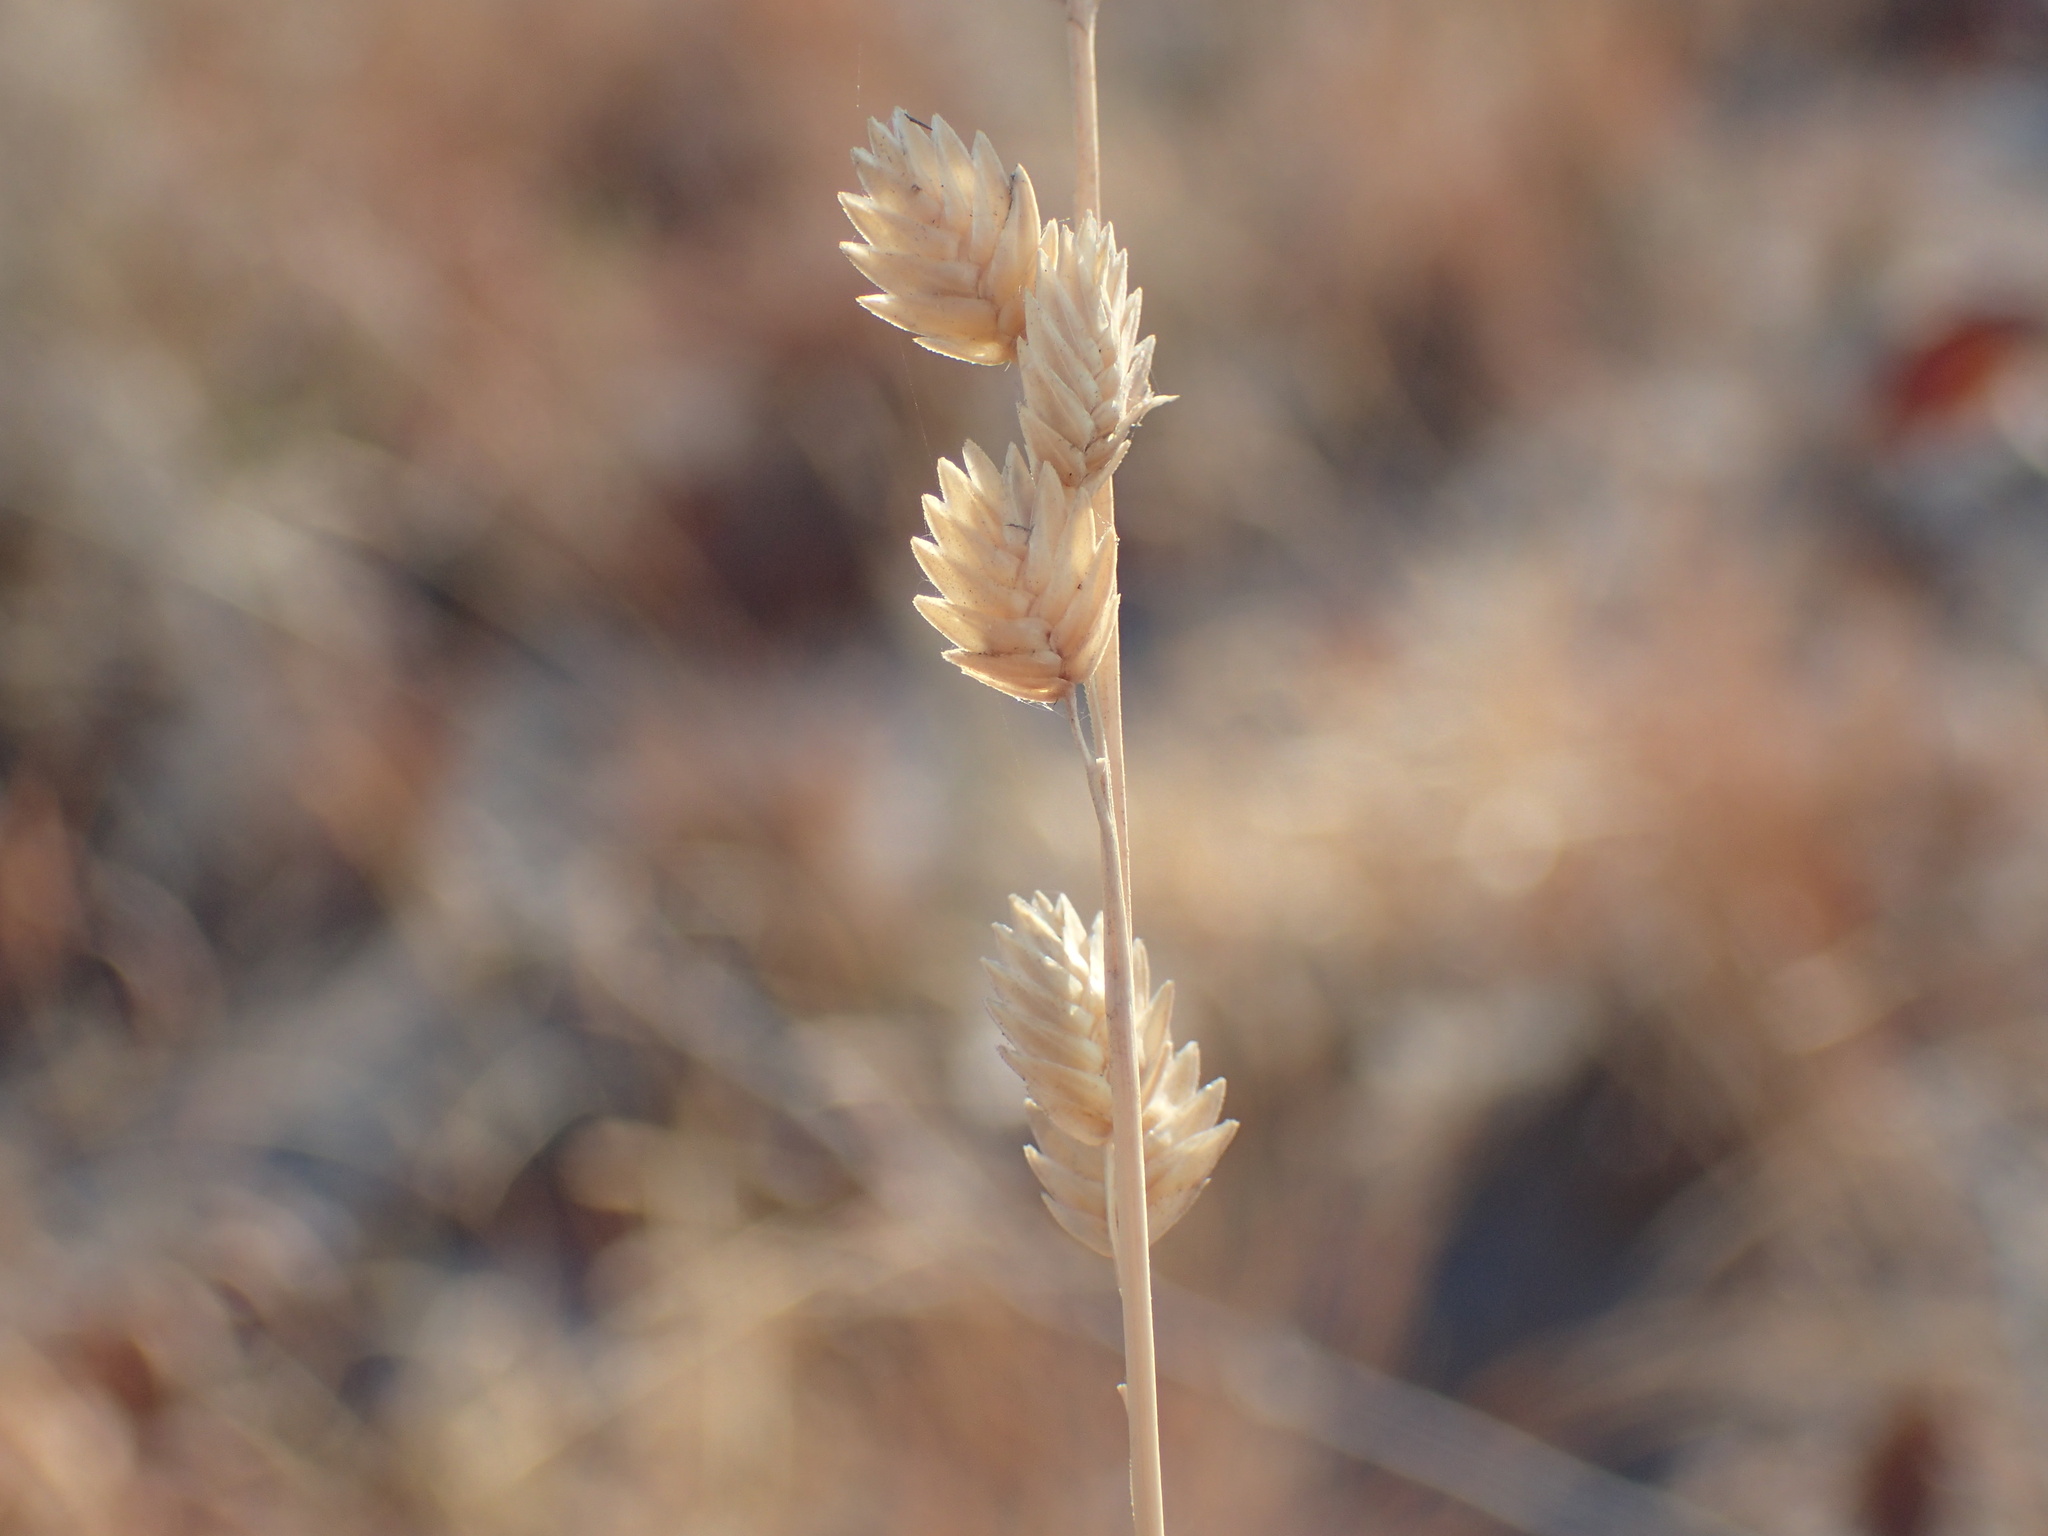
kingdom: Plantae
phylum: Tracheophyta
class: Liliopsida
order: Poales
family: Poaceae
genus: Eragrostis
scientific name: Eragrostis superba
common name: Wilman lovegrass
